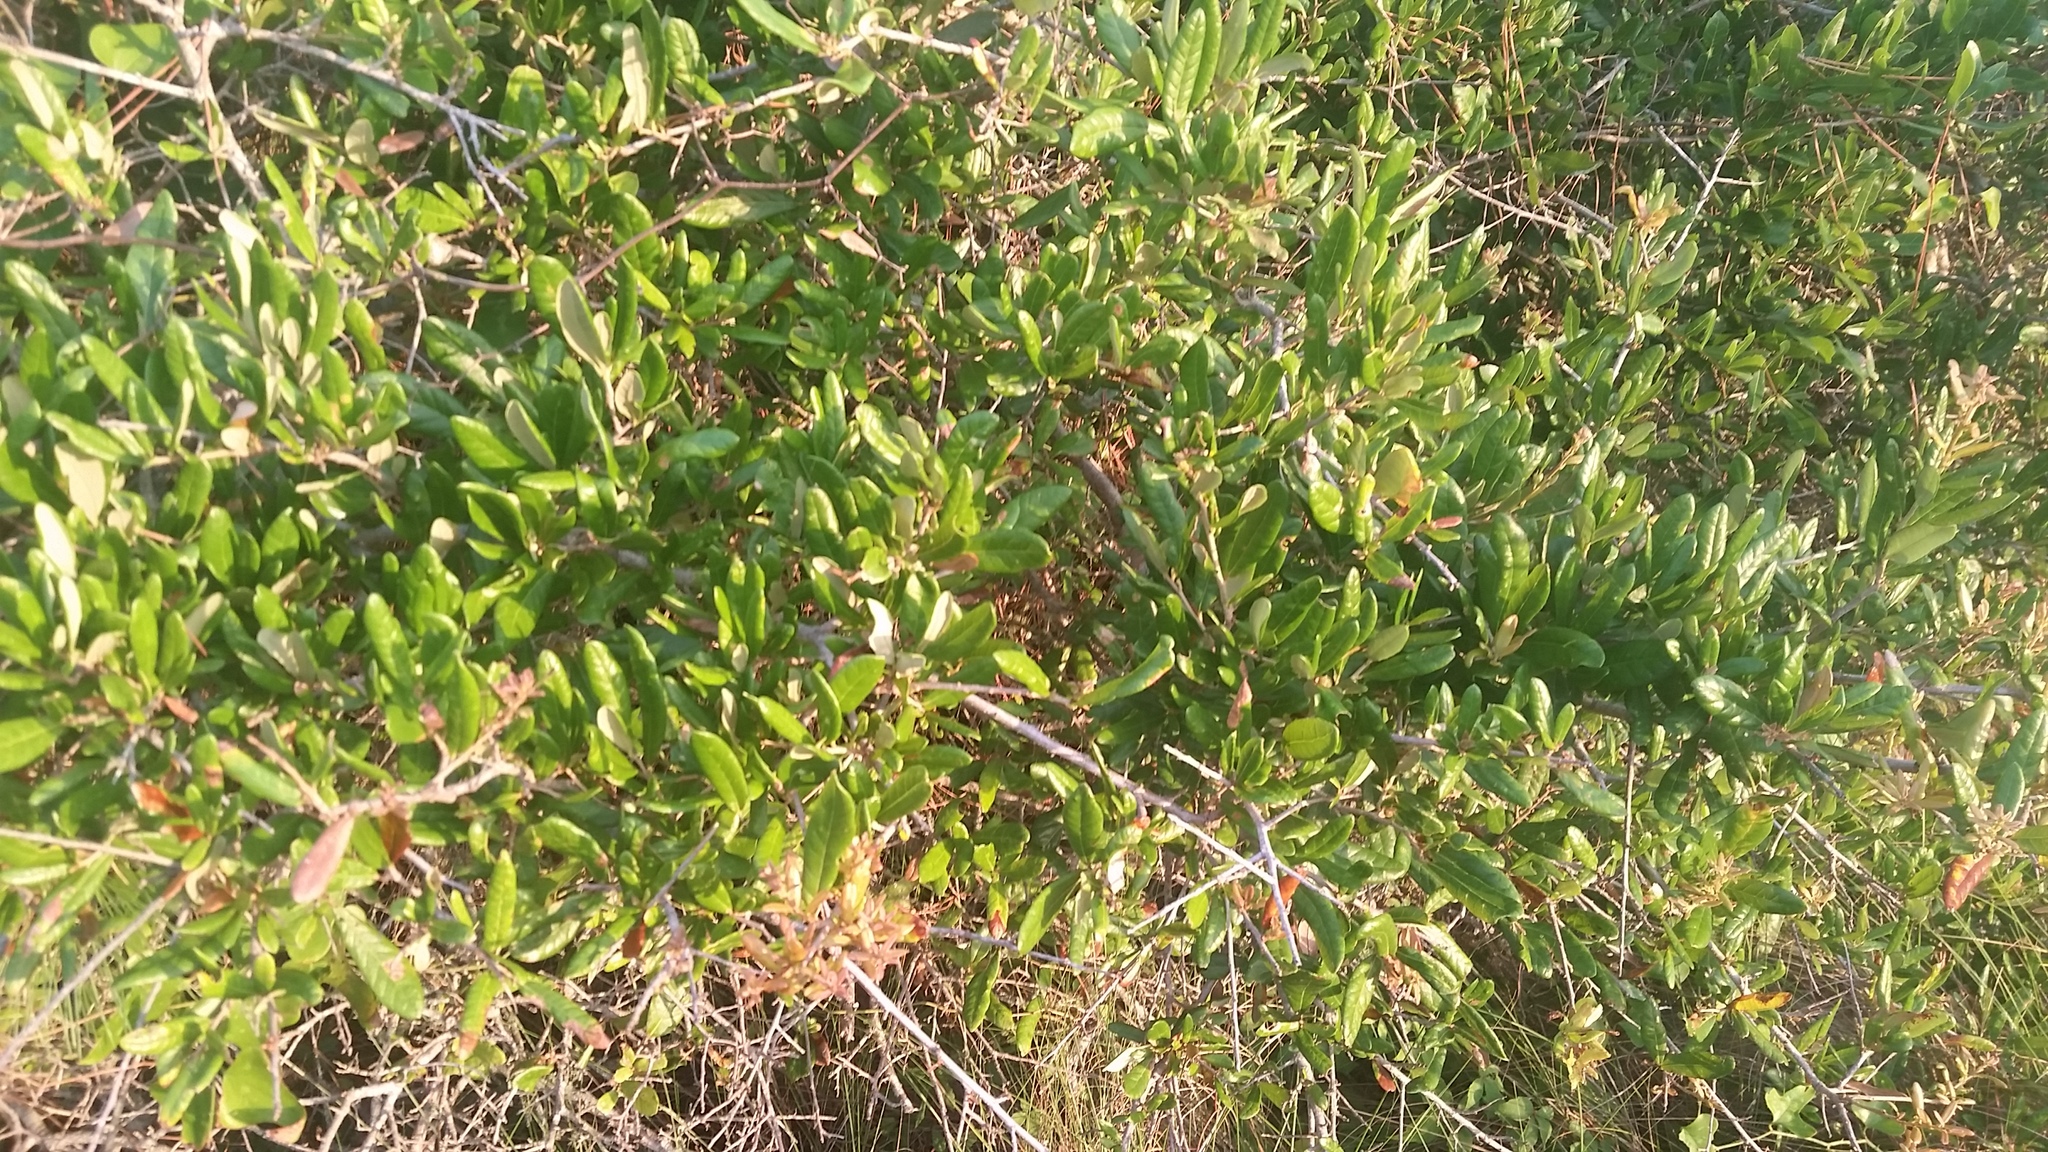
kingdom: Plantae
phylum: Tracheophyta
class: Magnoliopsida
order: Fagales
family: Fagaceae
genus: Quercus
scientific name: Quercus geminata
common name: Sand live oak
